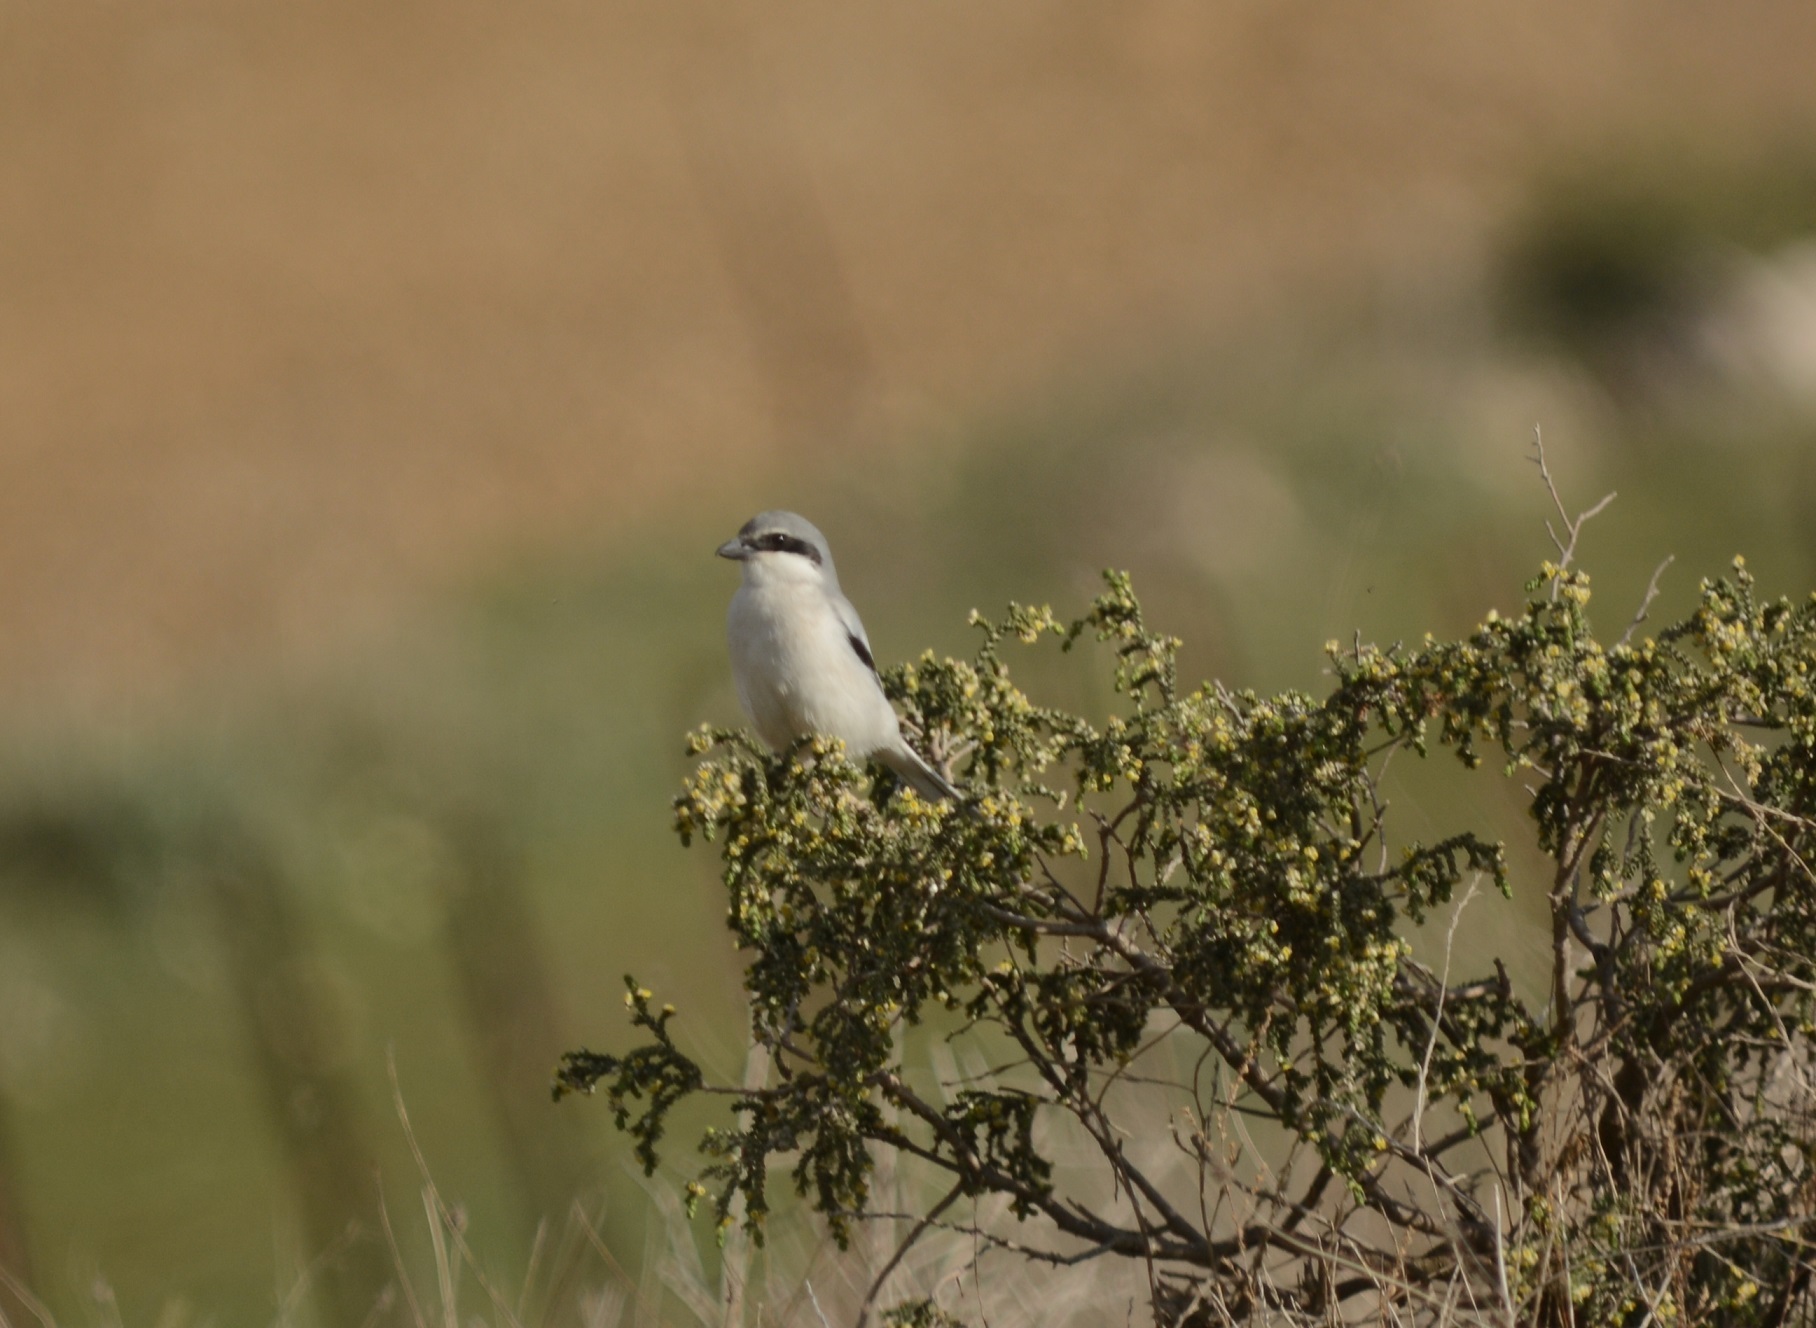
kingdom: Animalia
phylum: Chordata
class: Aves
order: Passeriformes
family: Laniidae
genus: Lanius
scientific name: Lanius excubitor
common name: Great grey shrike
